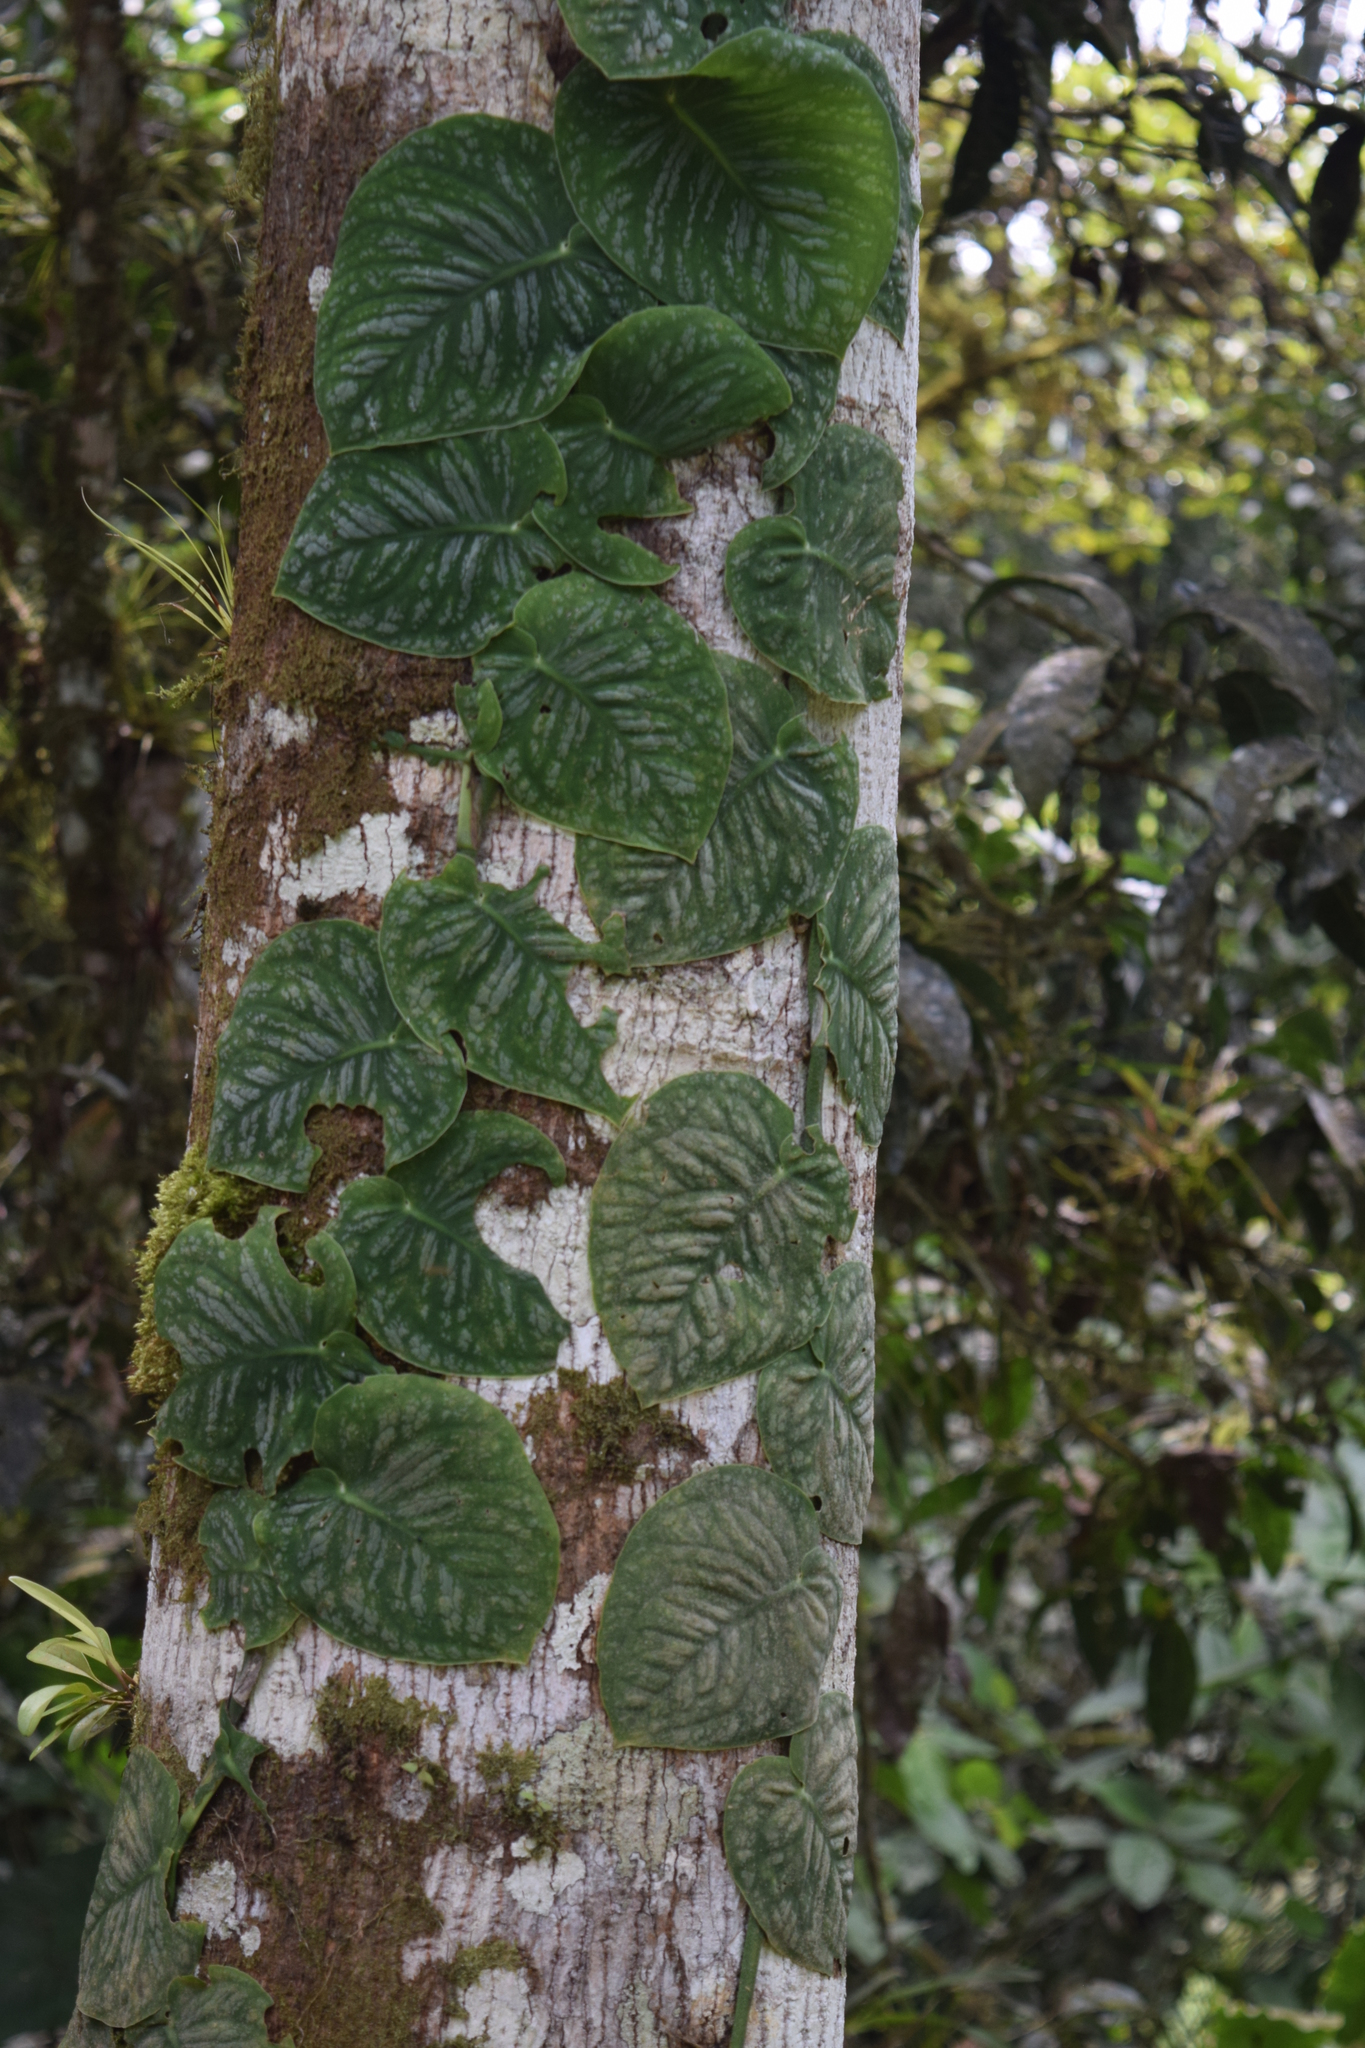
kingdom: Plantae
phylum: Tracheophyta
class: Liliopsida
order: Alismatales
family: Araceae
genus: Monstera
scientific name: Monstera dubia
